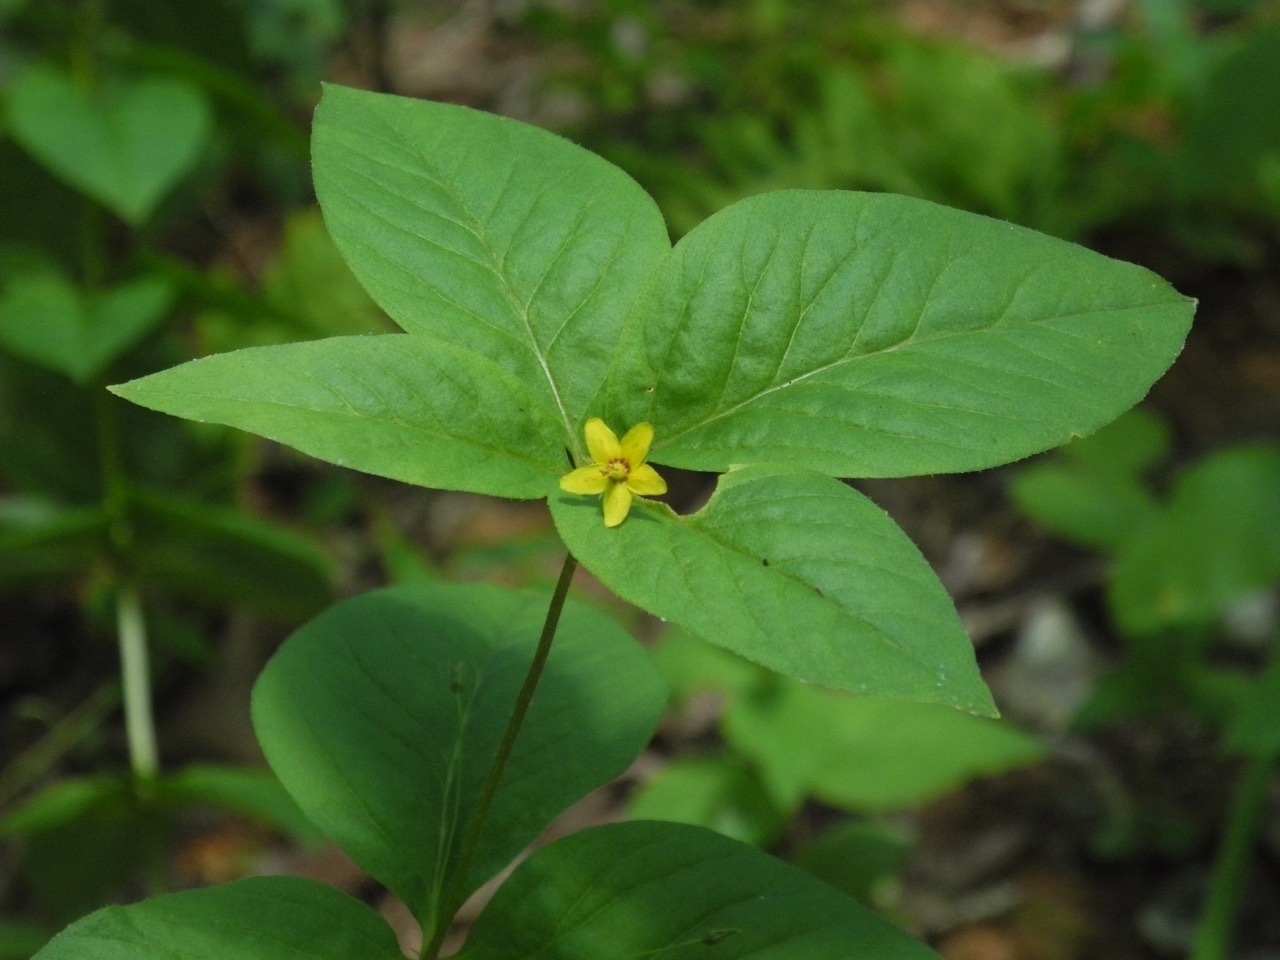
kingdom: Plantae
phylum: Tracheophyta
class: Magnoliopsida
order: Ericales
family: Primulaceae
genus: Lysimachia
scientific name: Lysimachia quadrifolia
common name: Whorled loosestrife
